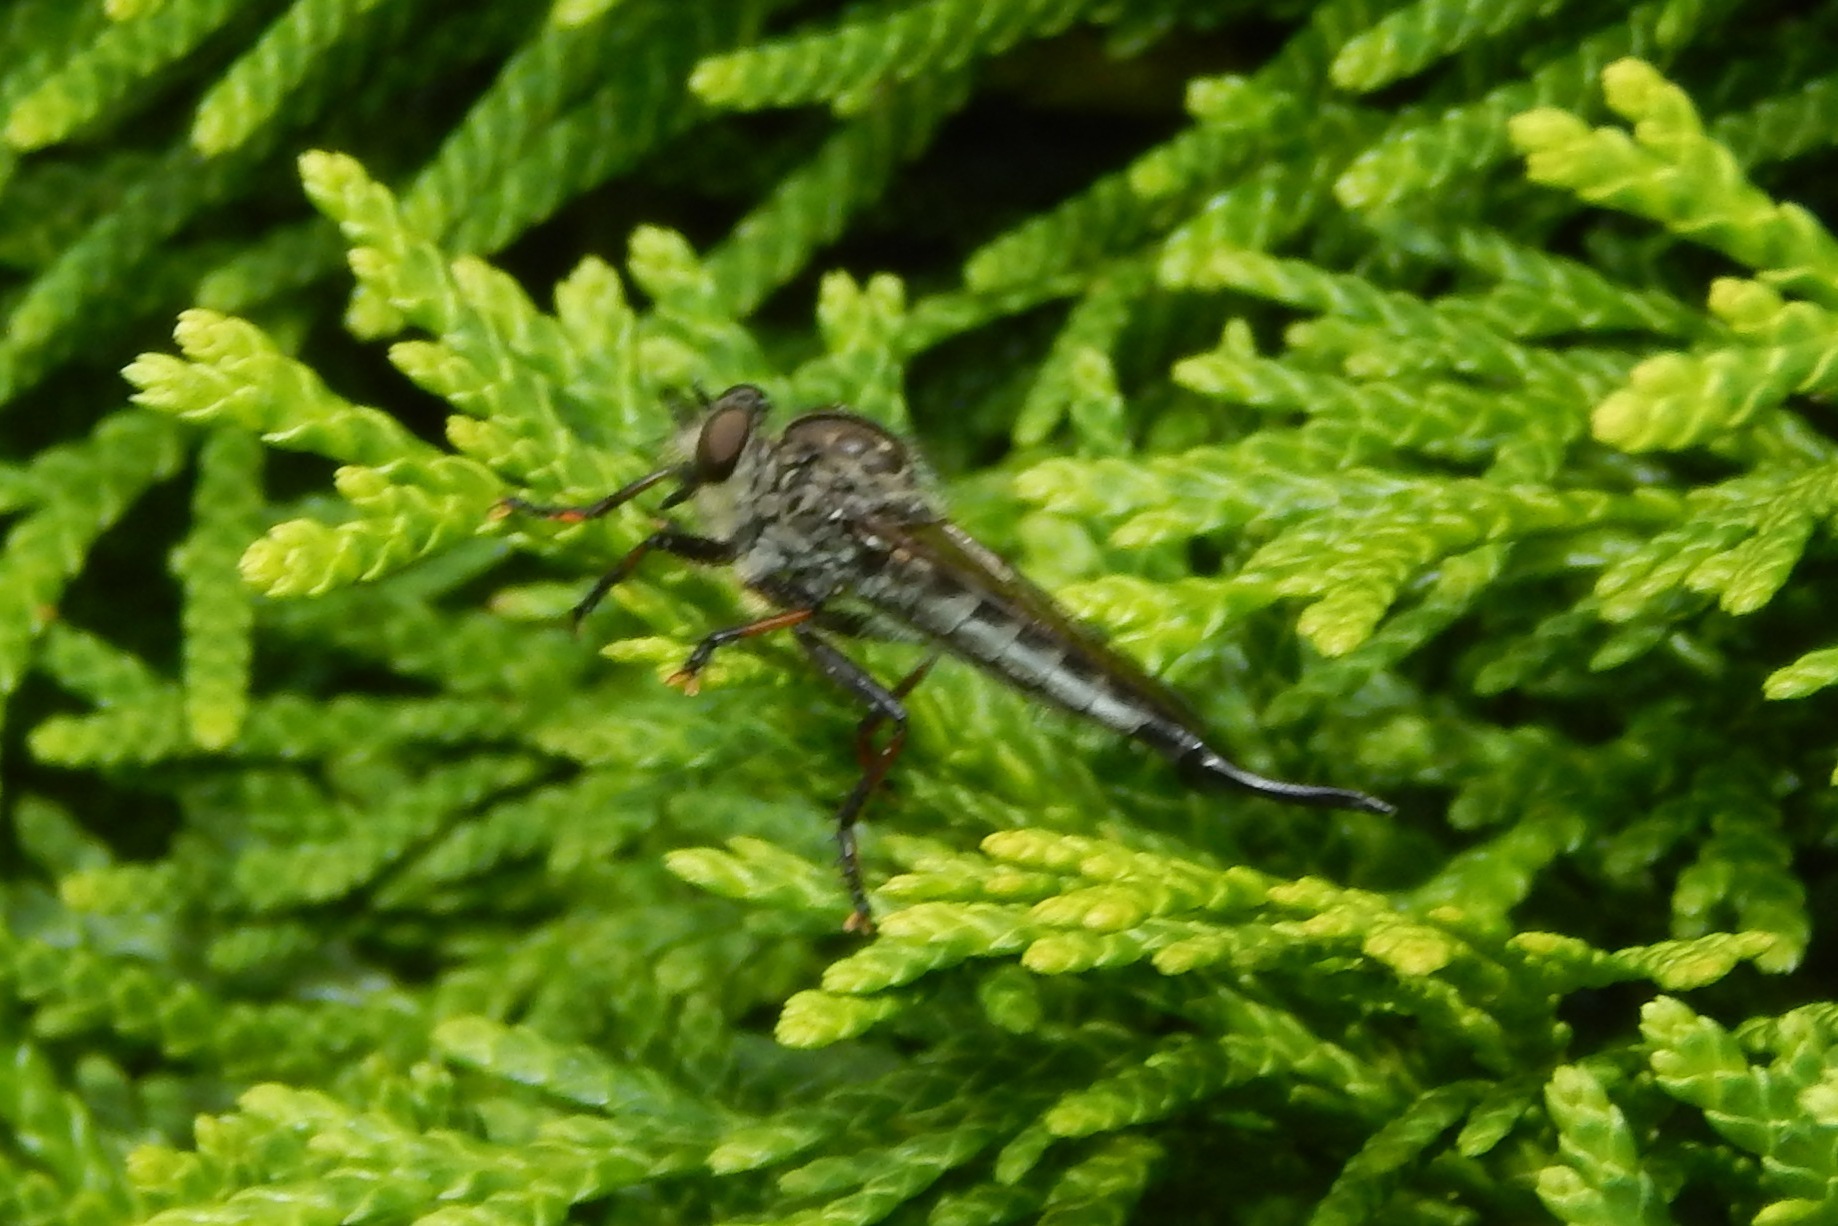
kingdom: Animalia
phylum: Arthropoda
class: Insecta
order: Diptera
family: Asilidae
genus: Efferia
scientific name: Efferia aestuans
